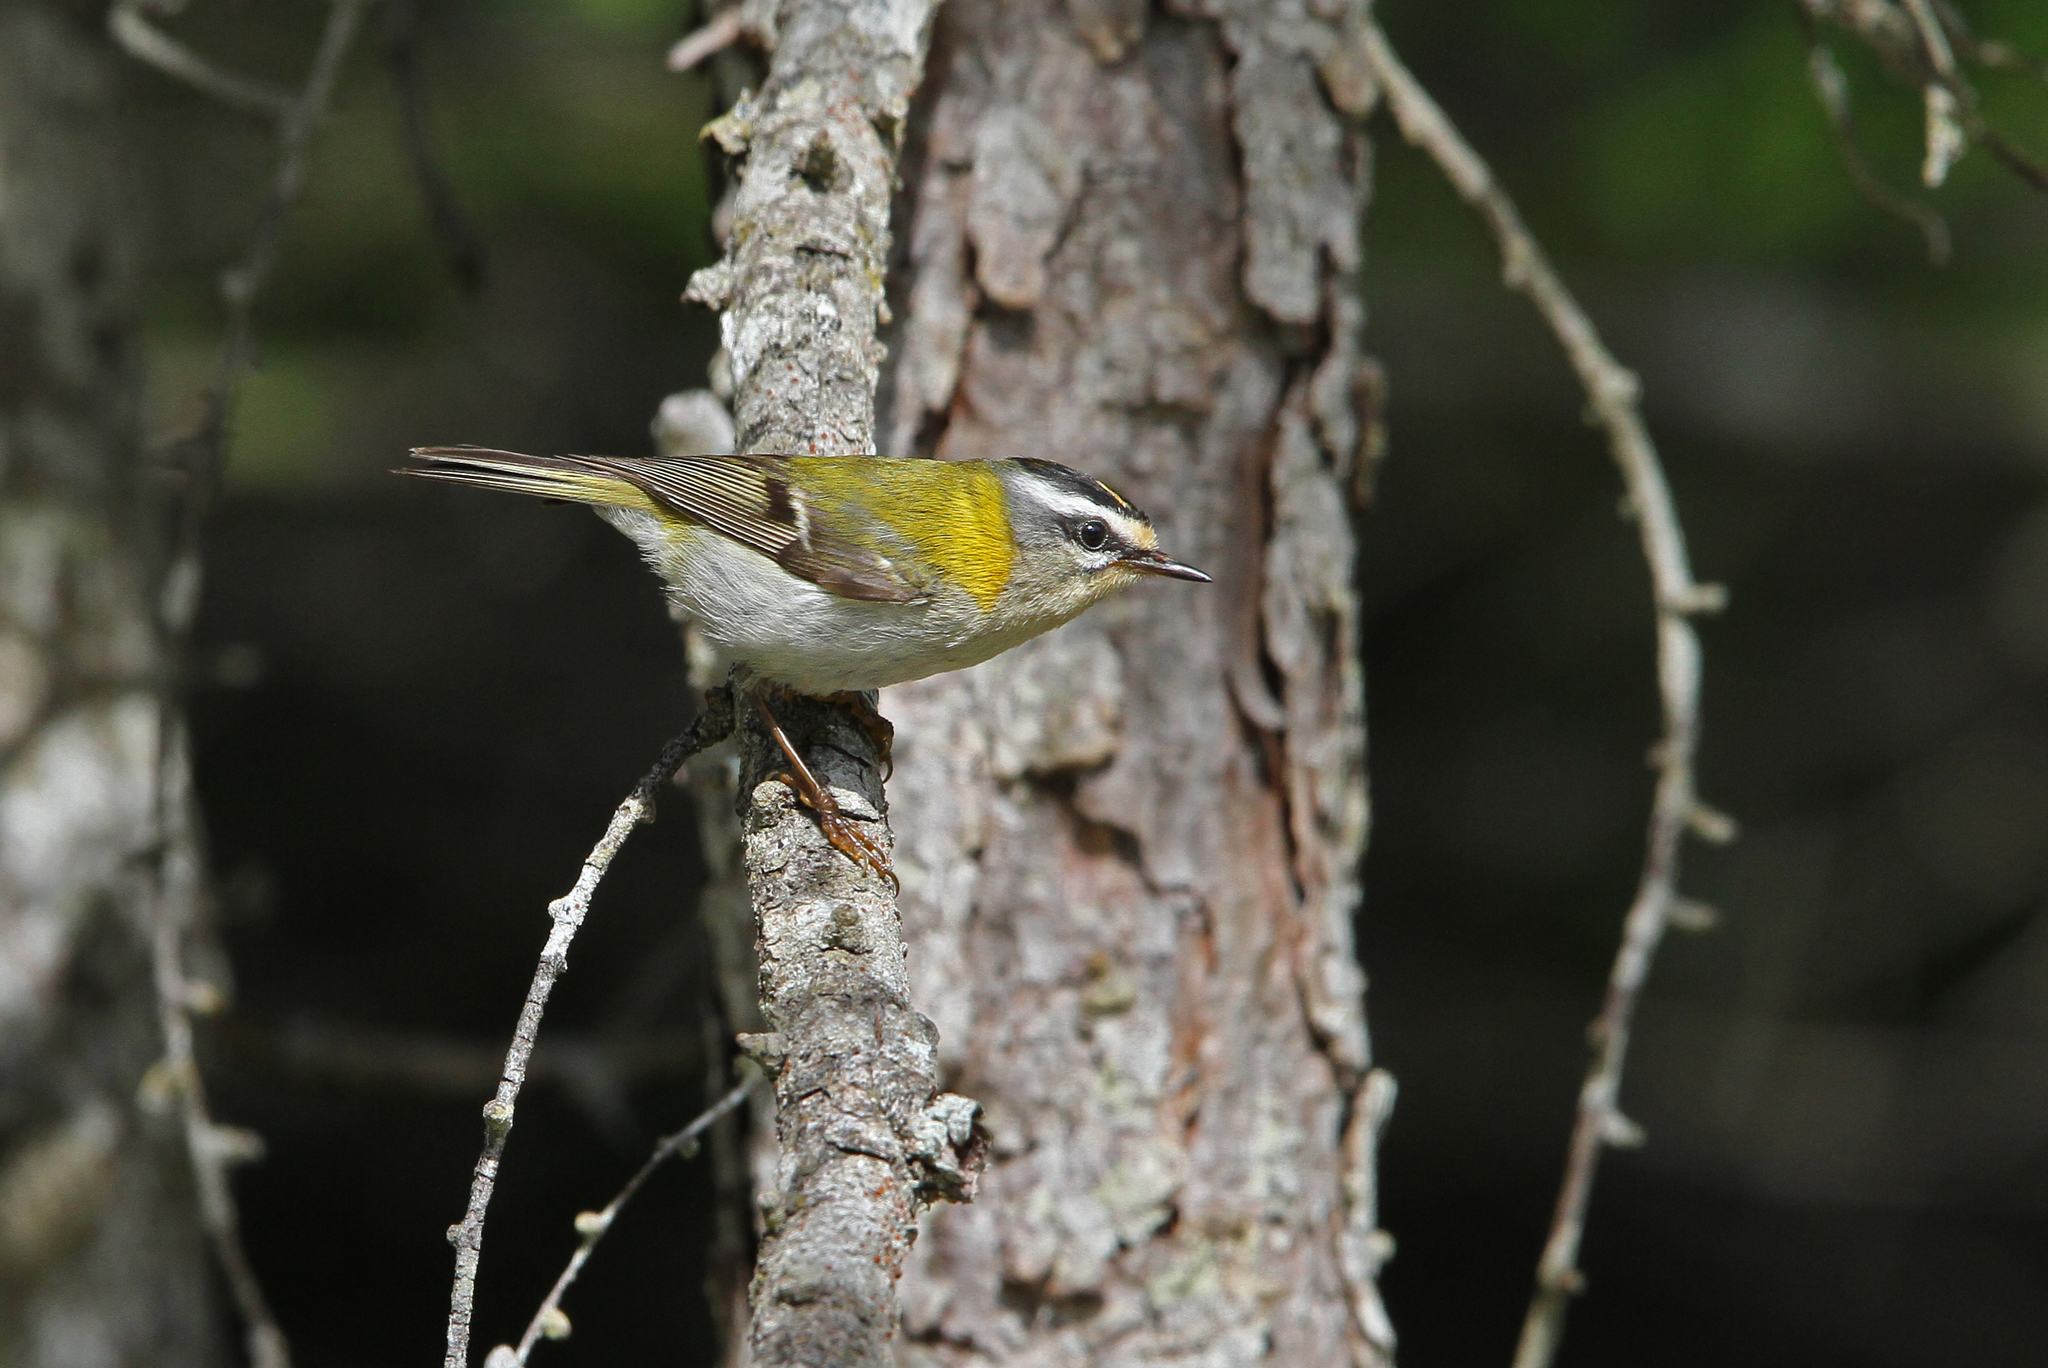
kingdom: Animalia
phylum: Chordata
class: Aves
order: Passeriformes
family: Regulidae
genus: Regulus
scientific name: Regulus ignicapilla
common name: Firecrest
